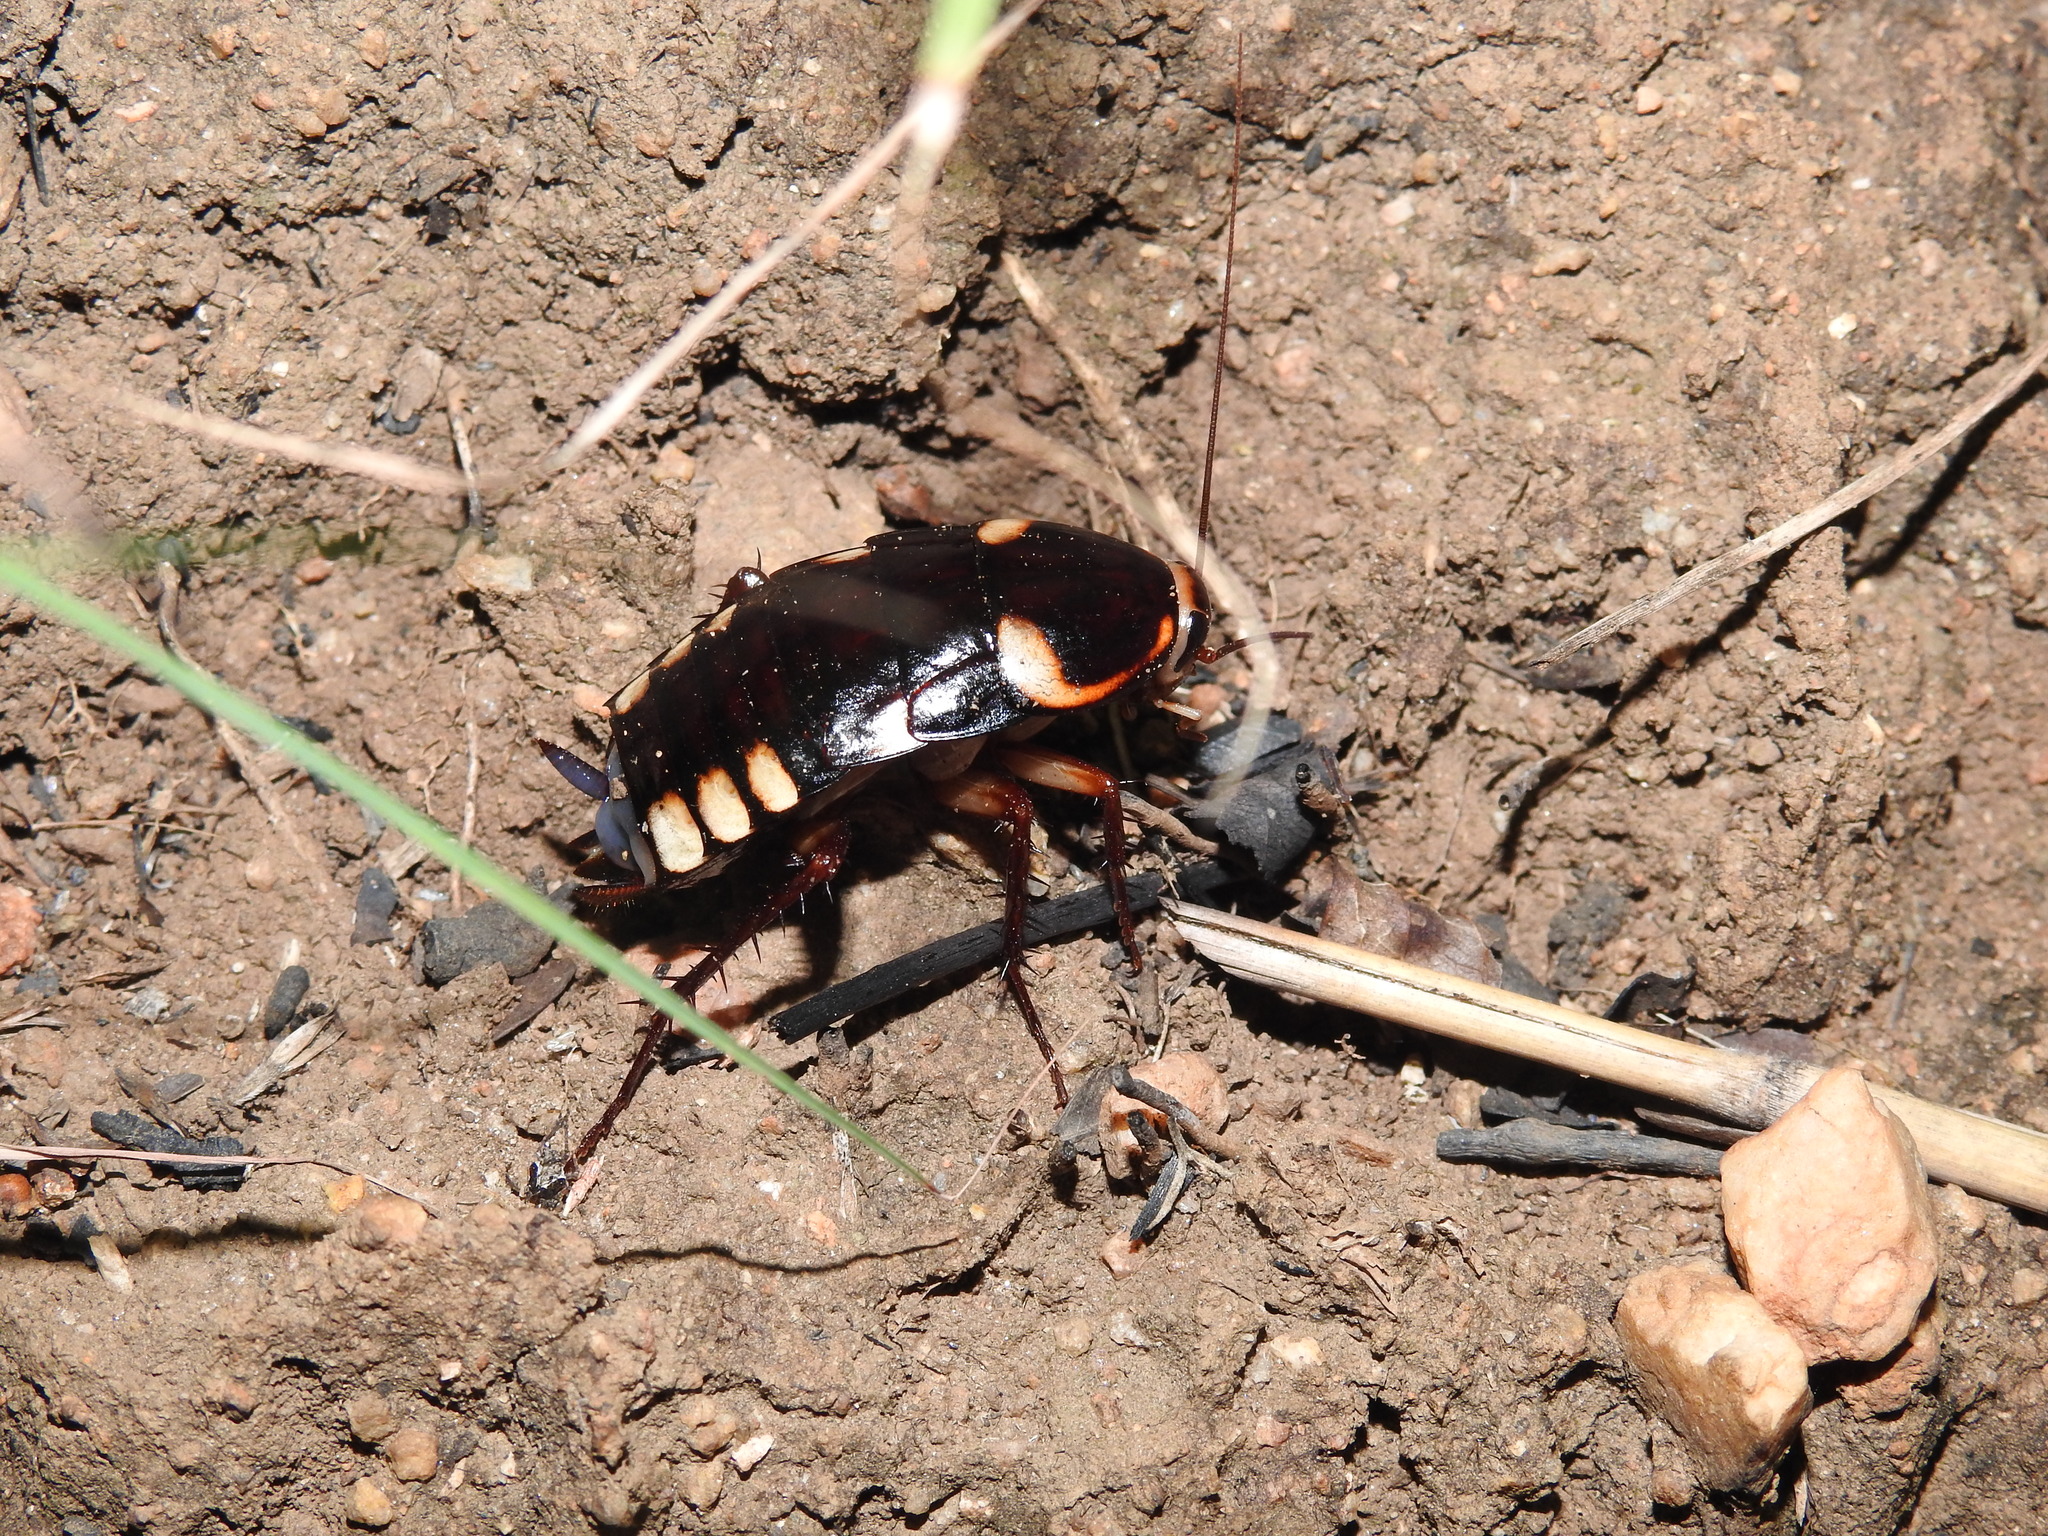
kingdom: Animalia
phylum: Arthropoda
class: Insecta
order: Blattodea
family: Blattidae
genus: Neostylopyga
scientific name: Neostylopyga ornata
